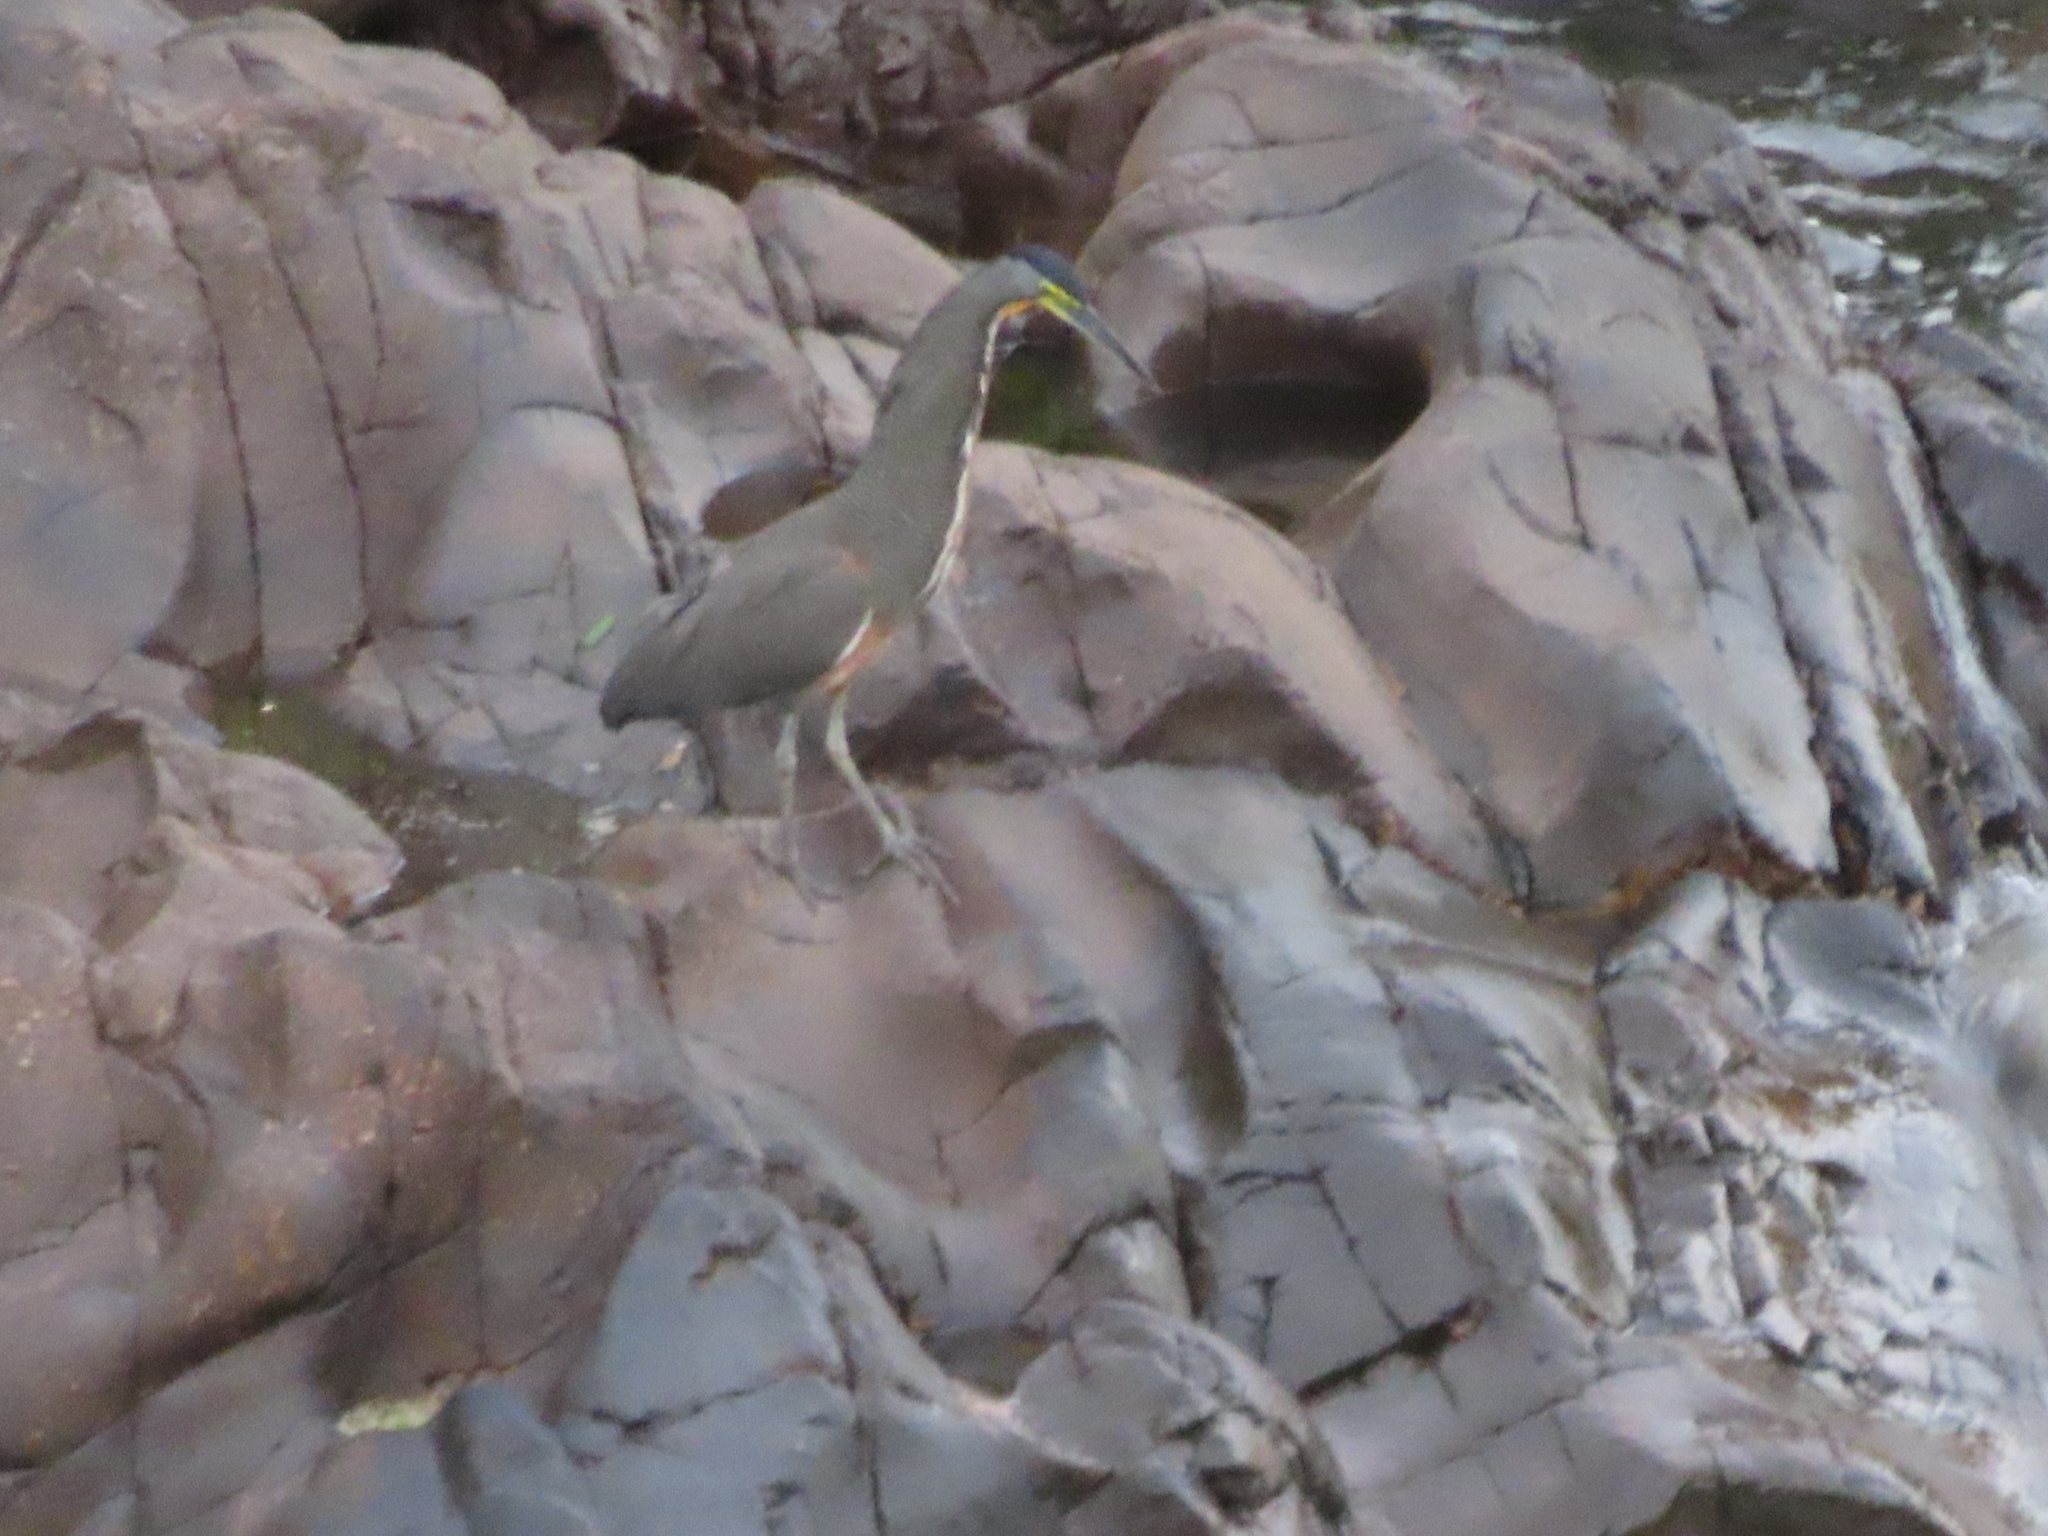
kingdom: Animalia
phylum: Chordata
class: Aves
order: Pelecaniformes
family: Ardeidae
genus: Tigrisoma
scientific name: Tigrisoma mexicanum
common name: Bare-throated tiger-heron
